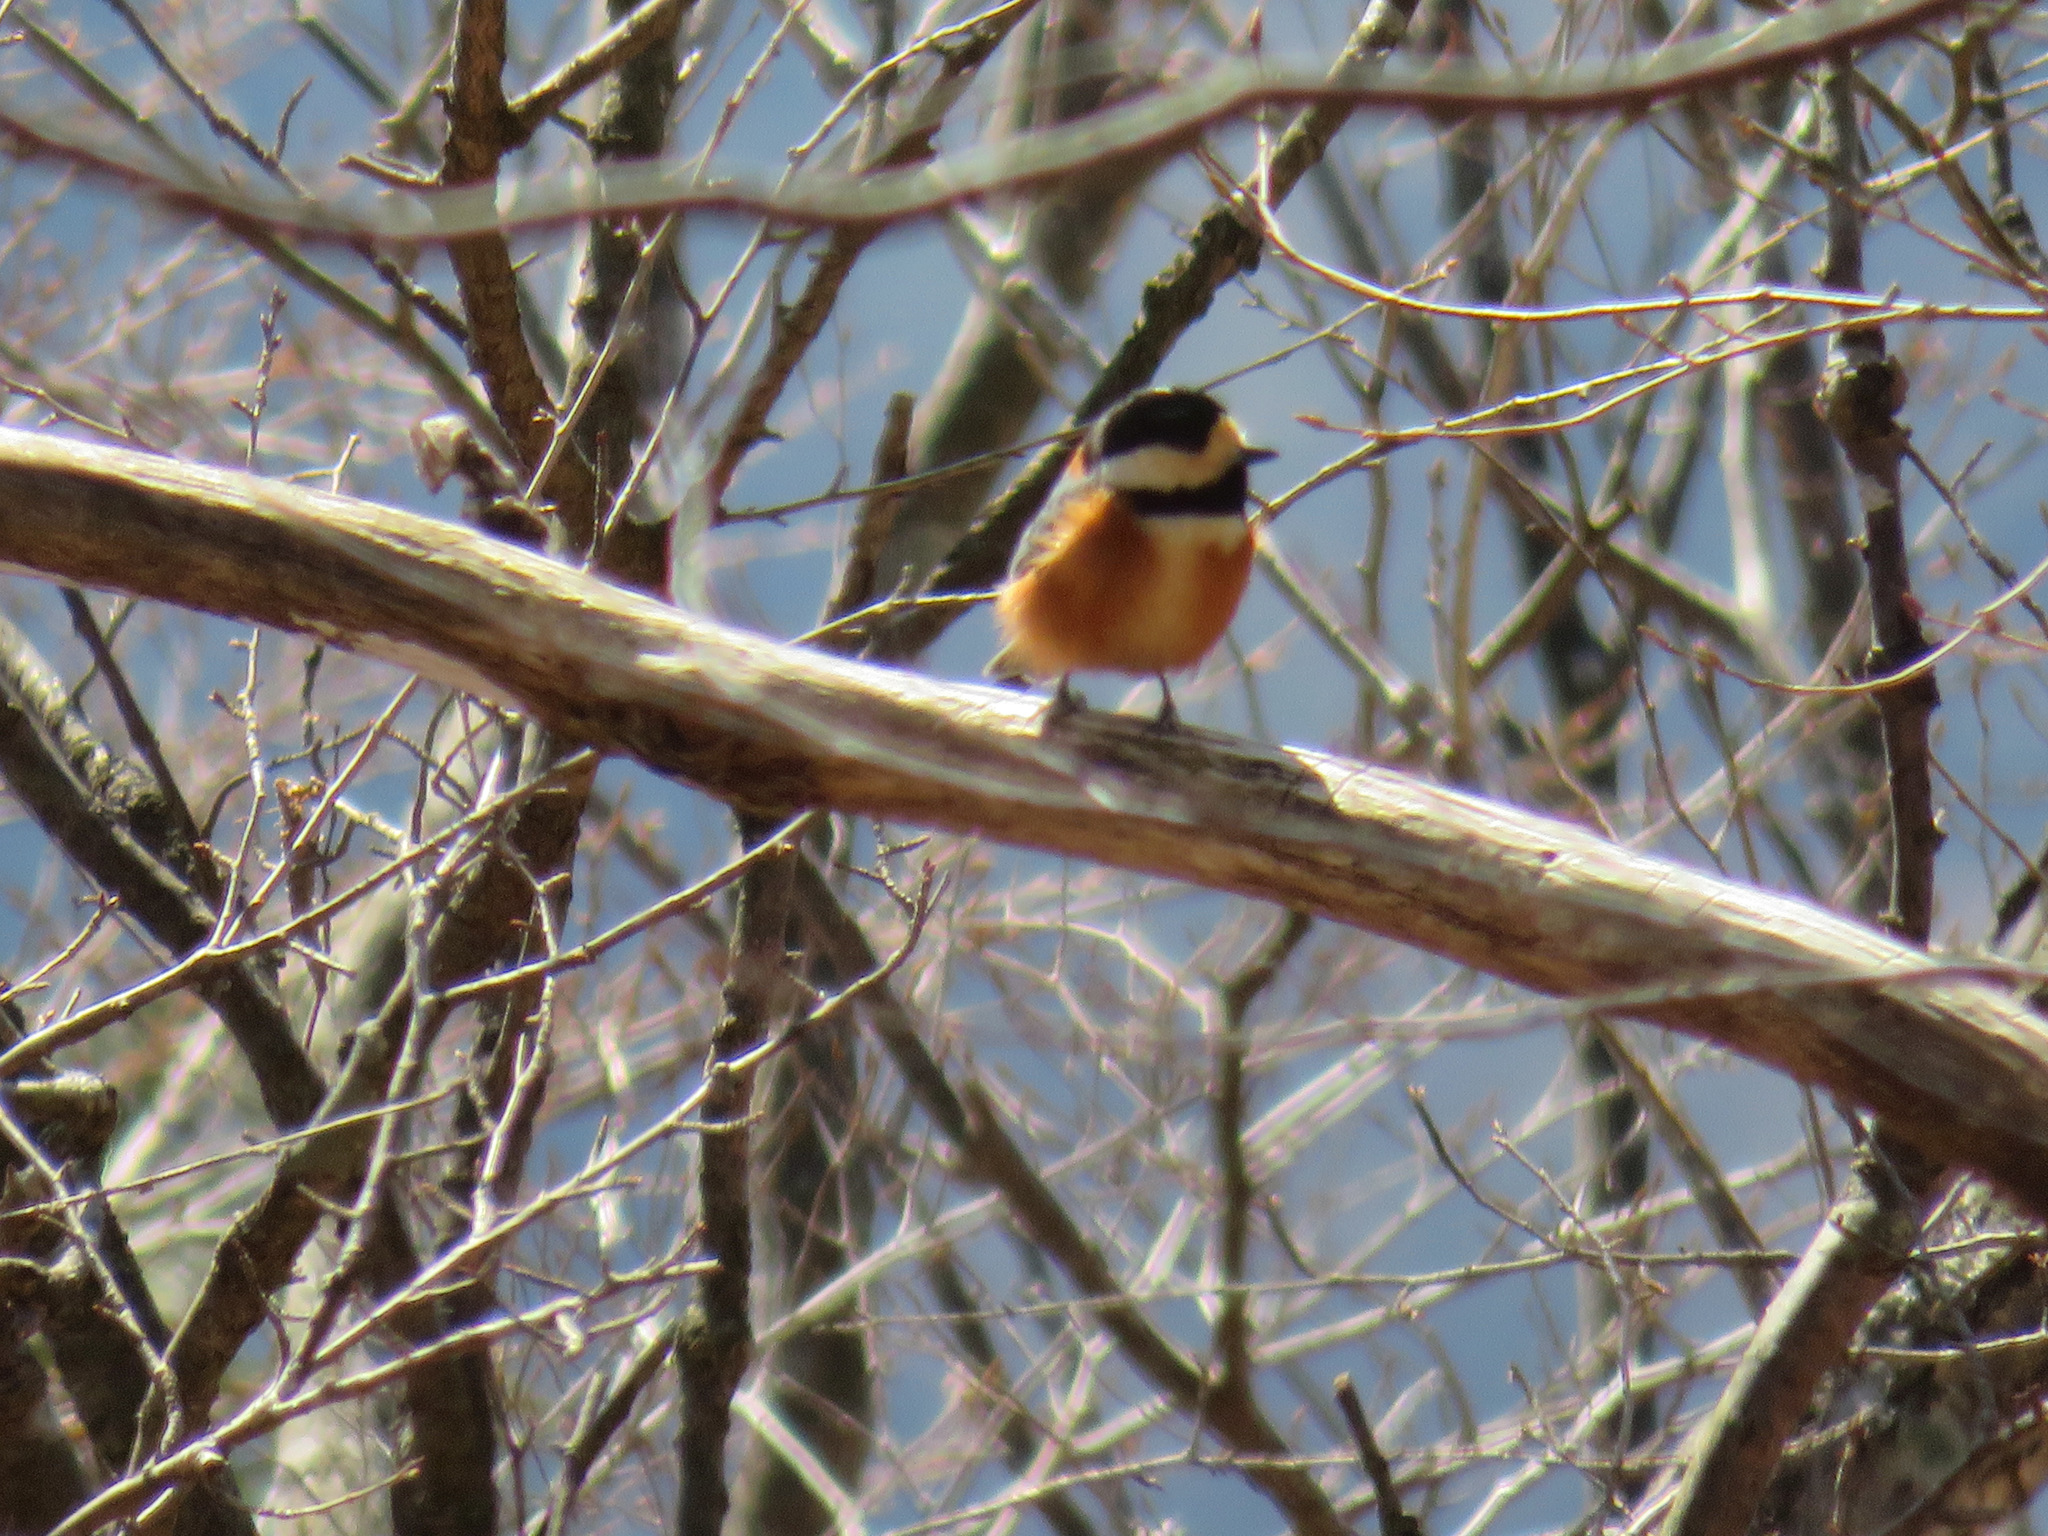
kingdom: Animalia
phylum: Chordata
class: Aves
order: Passeriformes
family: Paridae
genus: Poecile
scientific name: Poecile varius
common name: Varied tit
